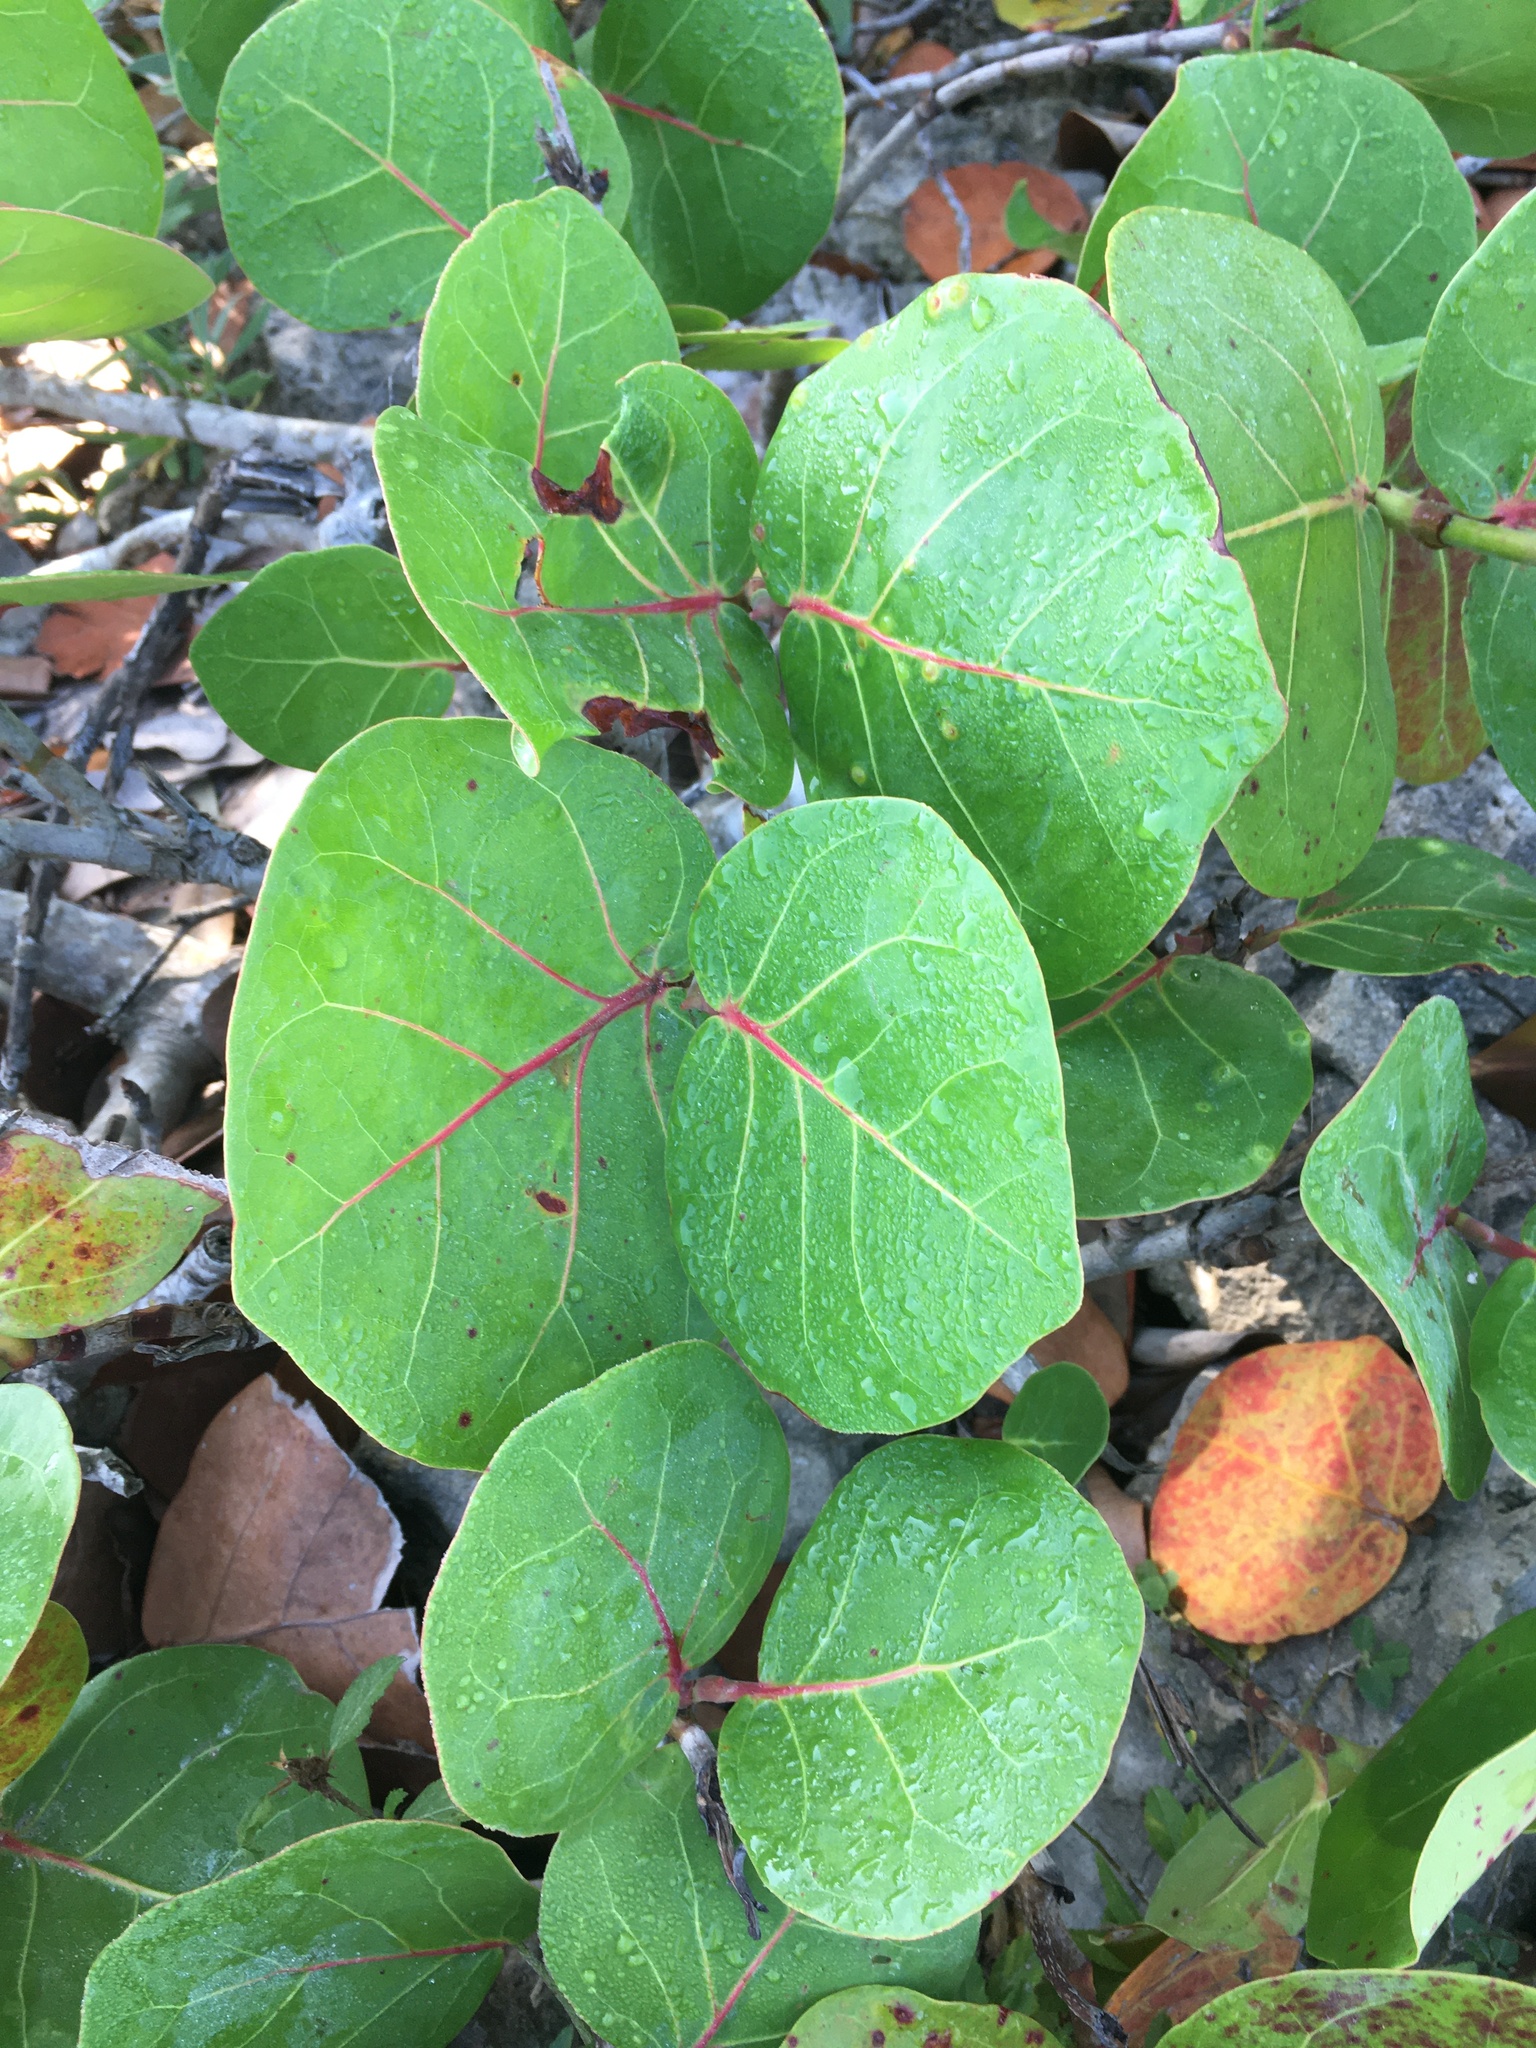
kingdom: Plantae
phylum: Tracheophyta
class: Magnoliopsida
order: Caryophyllales
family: Polygonaceae
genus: Coccoloba
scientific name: Coccoloba uvifera
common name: Seagrape
